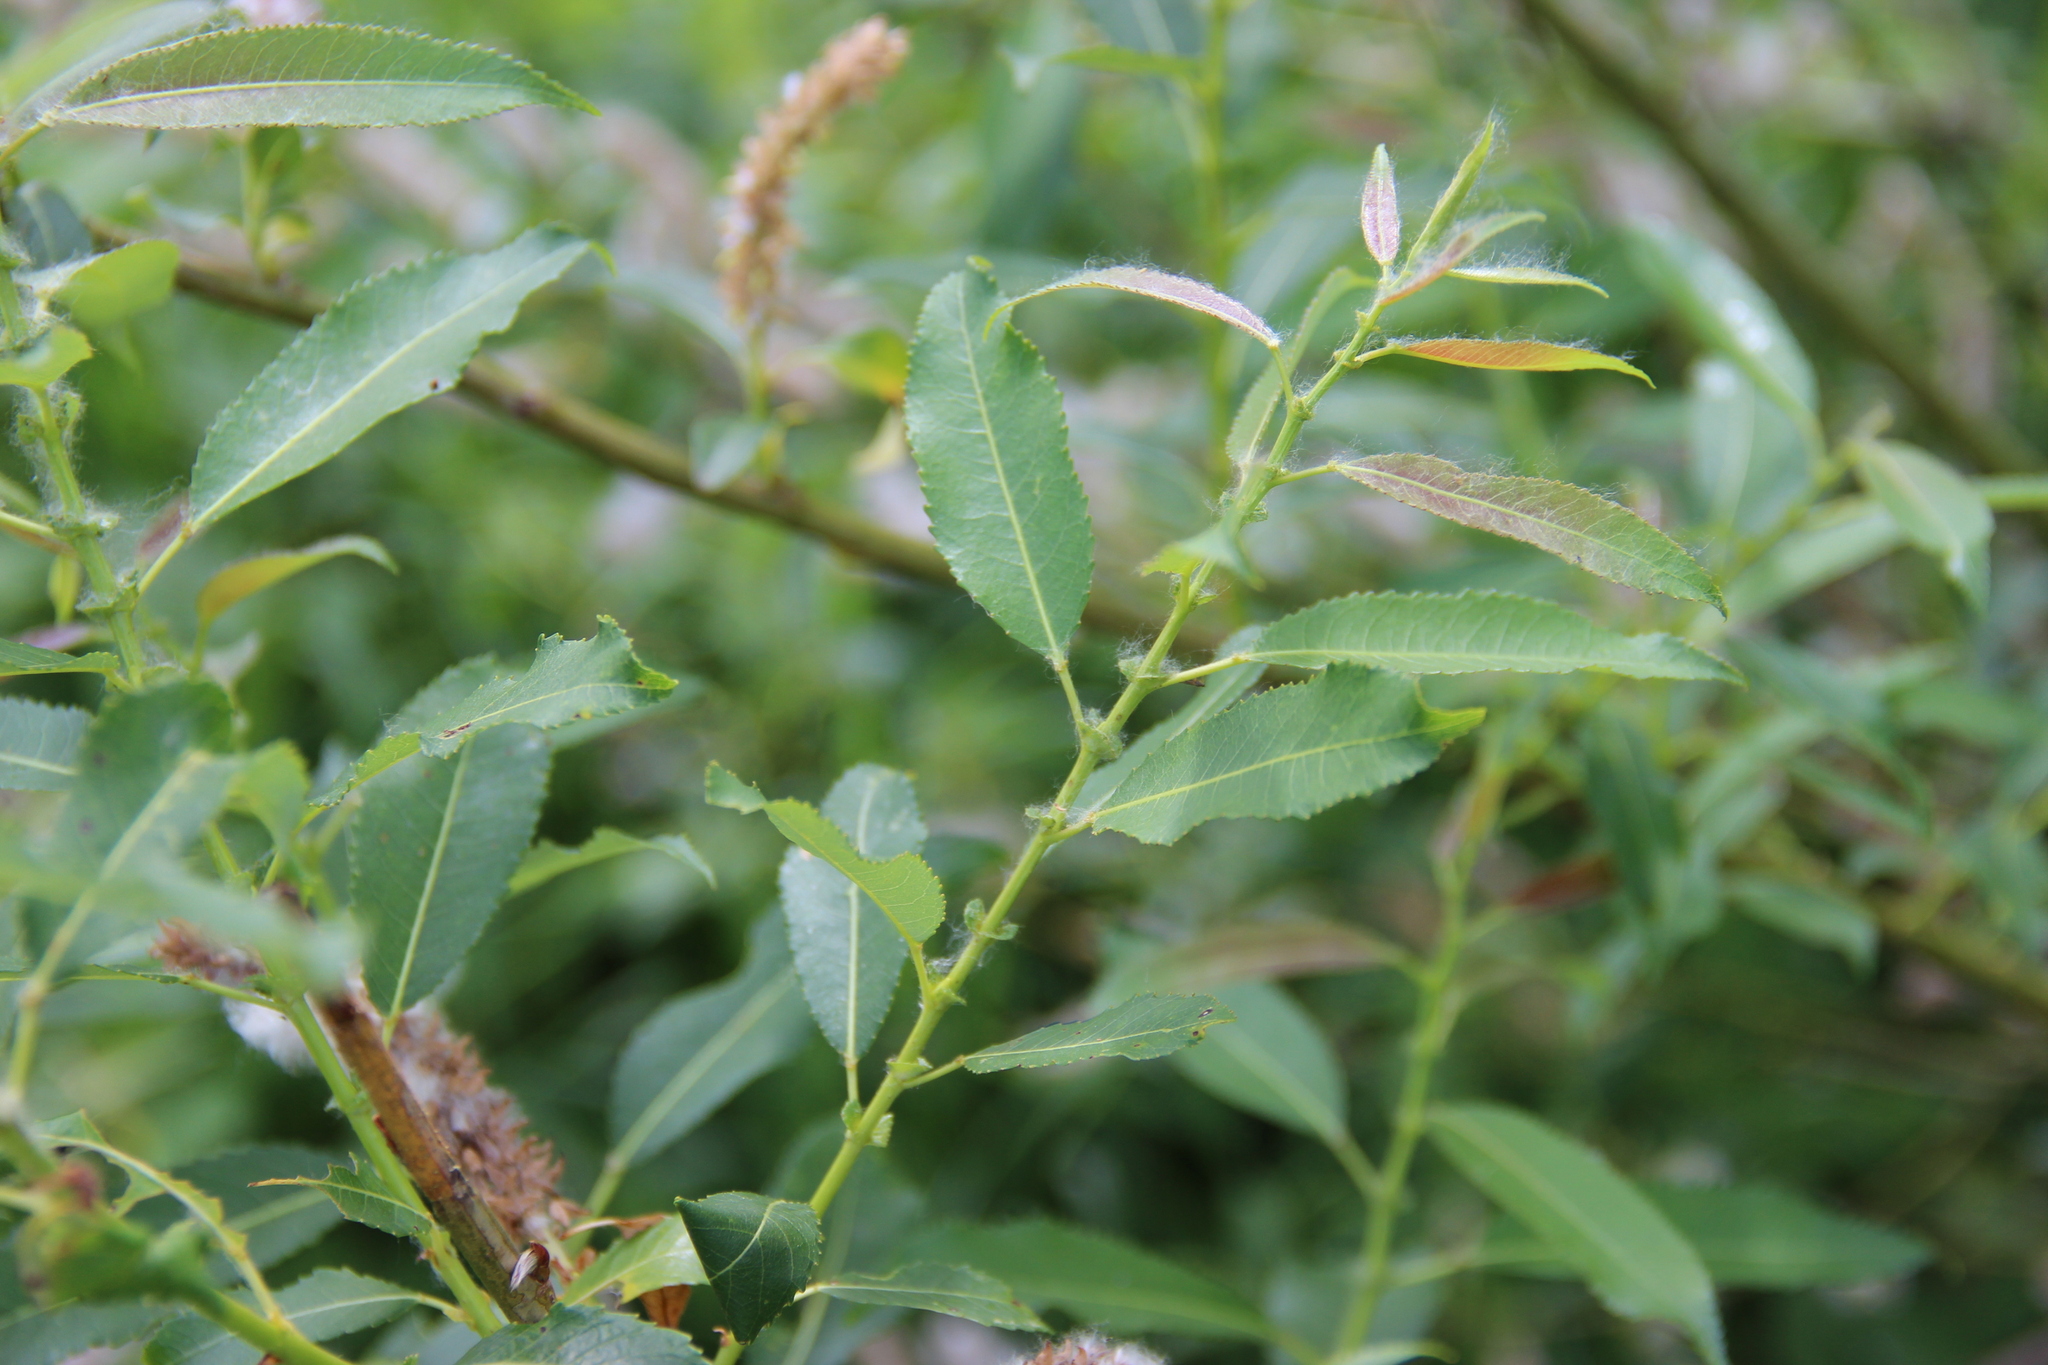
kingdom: Plantae
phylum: Tracheophyta
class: Magnoliopsida
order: Malpighiales
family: Salicaceae
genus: Salix
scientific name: Salix triandra
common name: Almond willow
